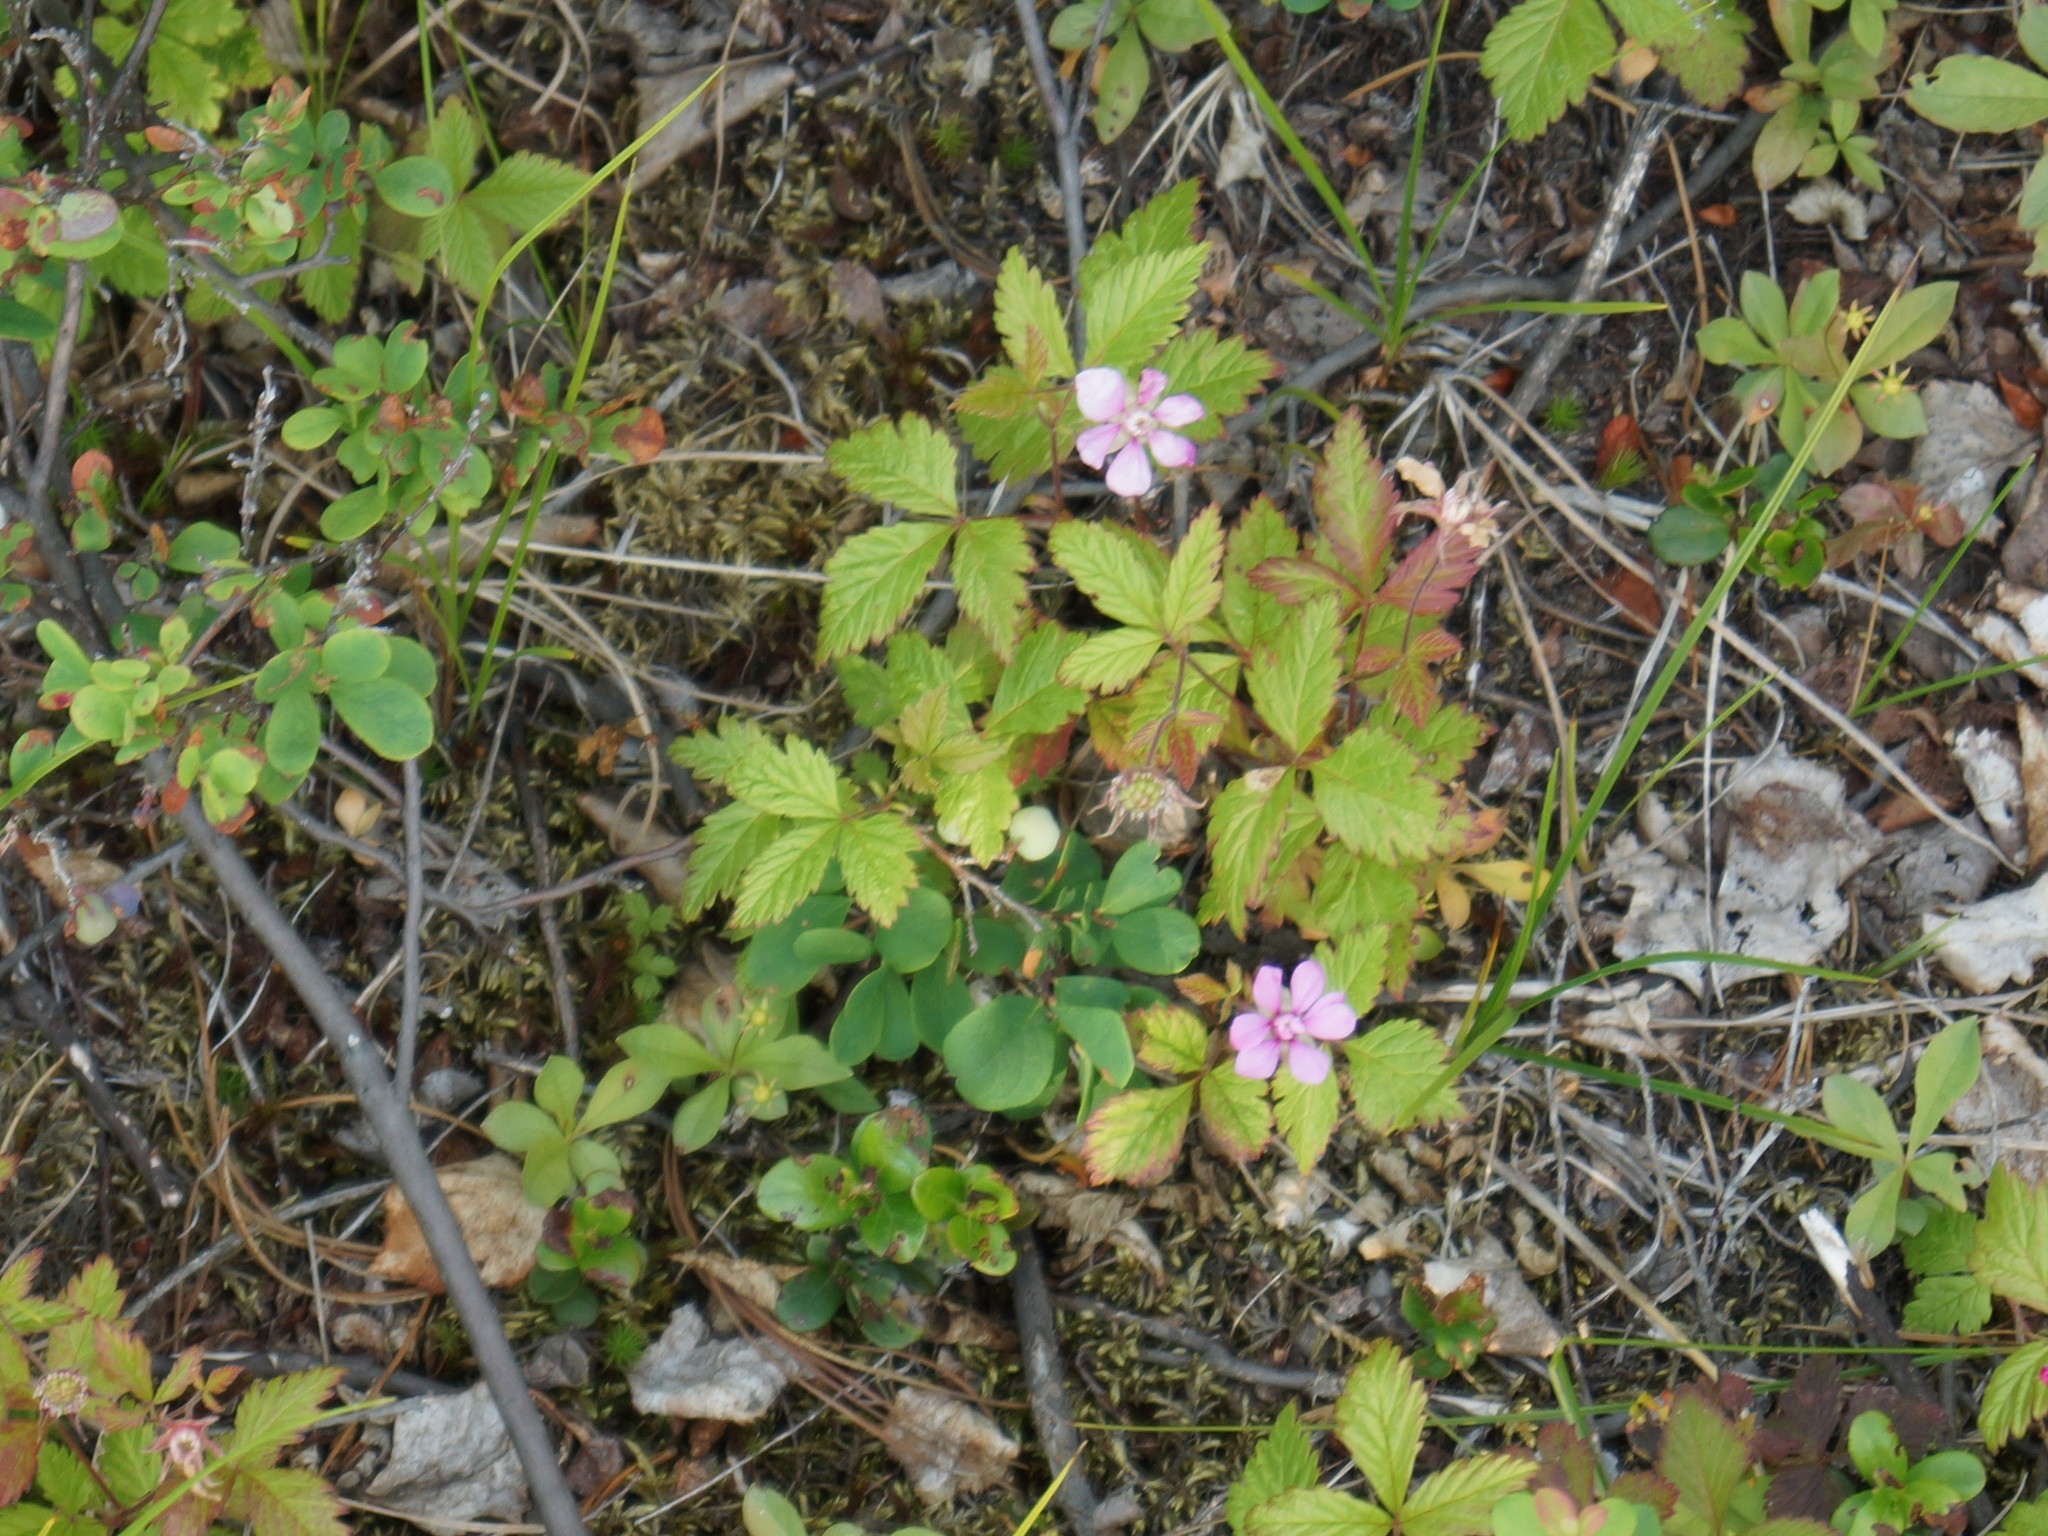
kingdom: Plantae
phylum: Tracheophyta
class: Magnoliopsida
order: Rosales
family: Rosaceae
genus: Rubus
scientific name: Rubus arcticus
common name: Arctic bramble
